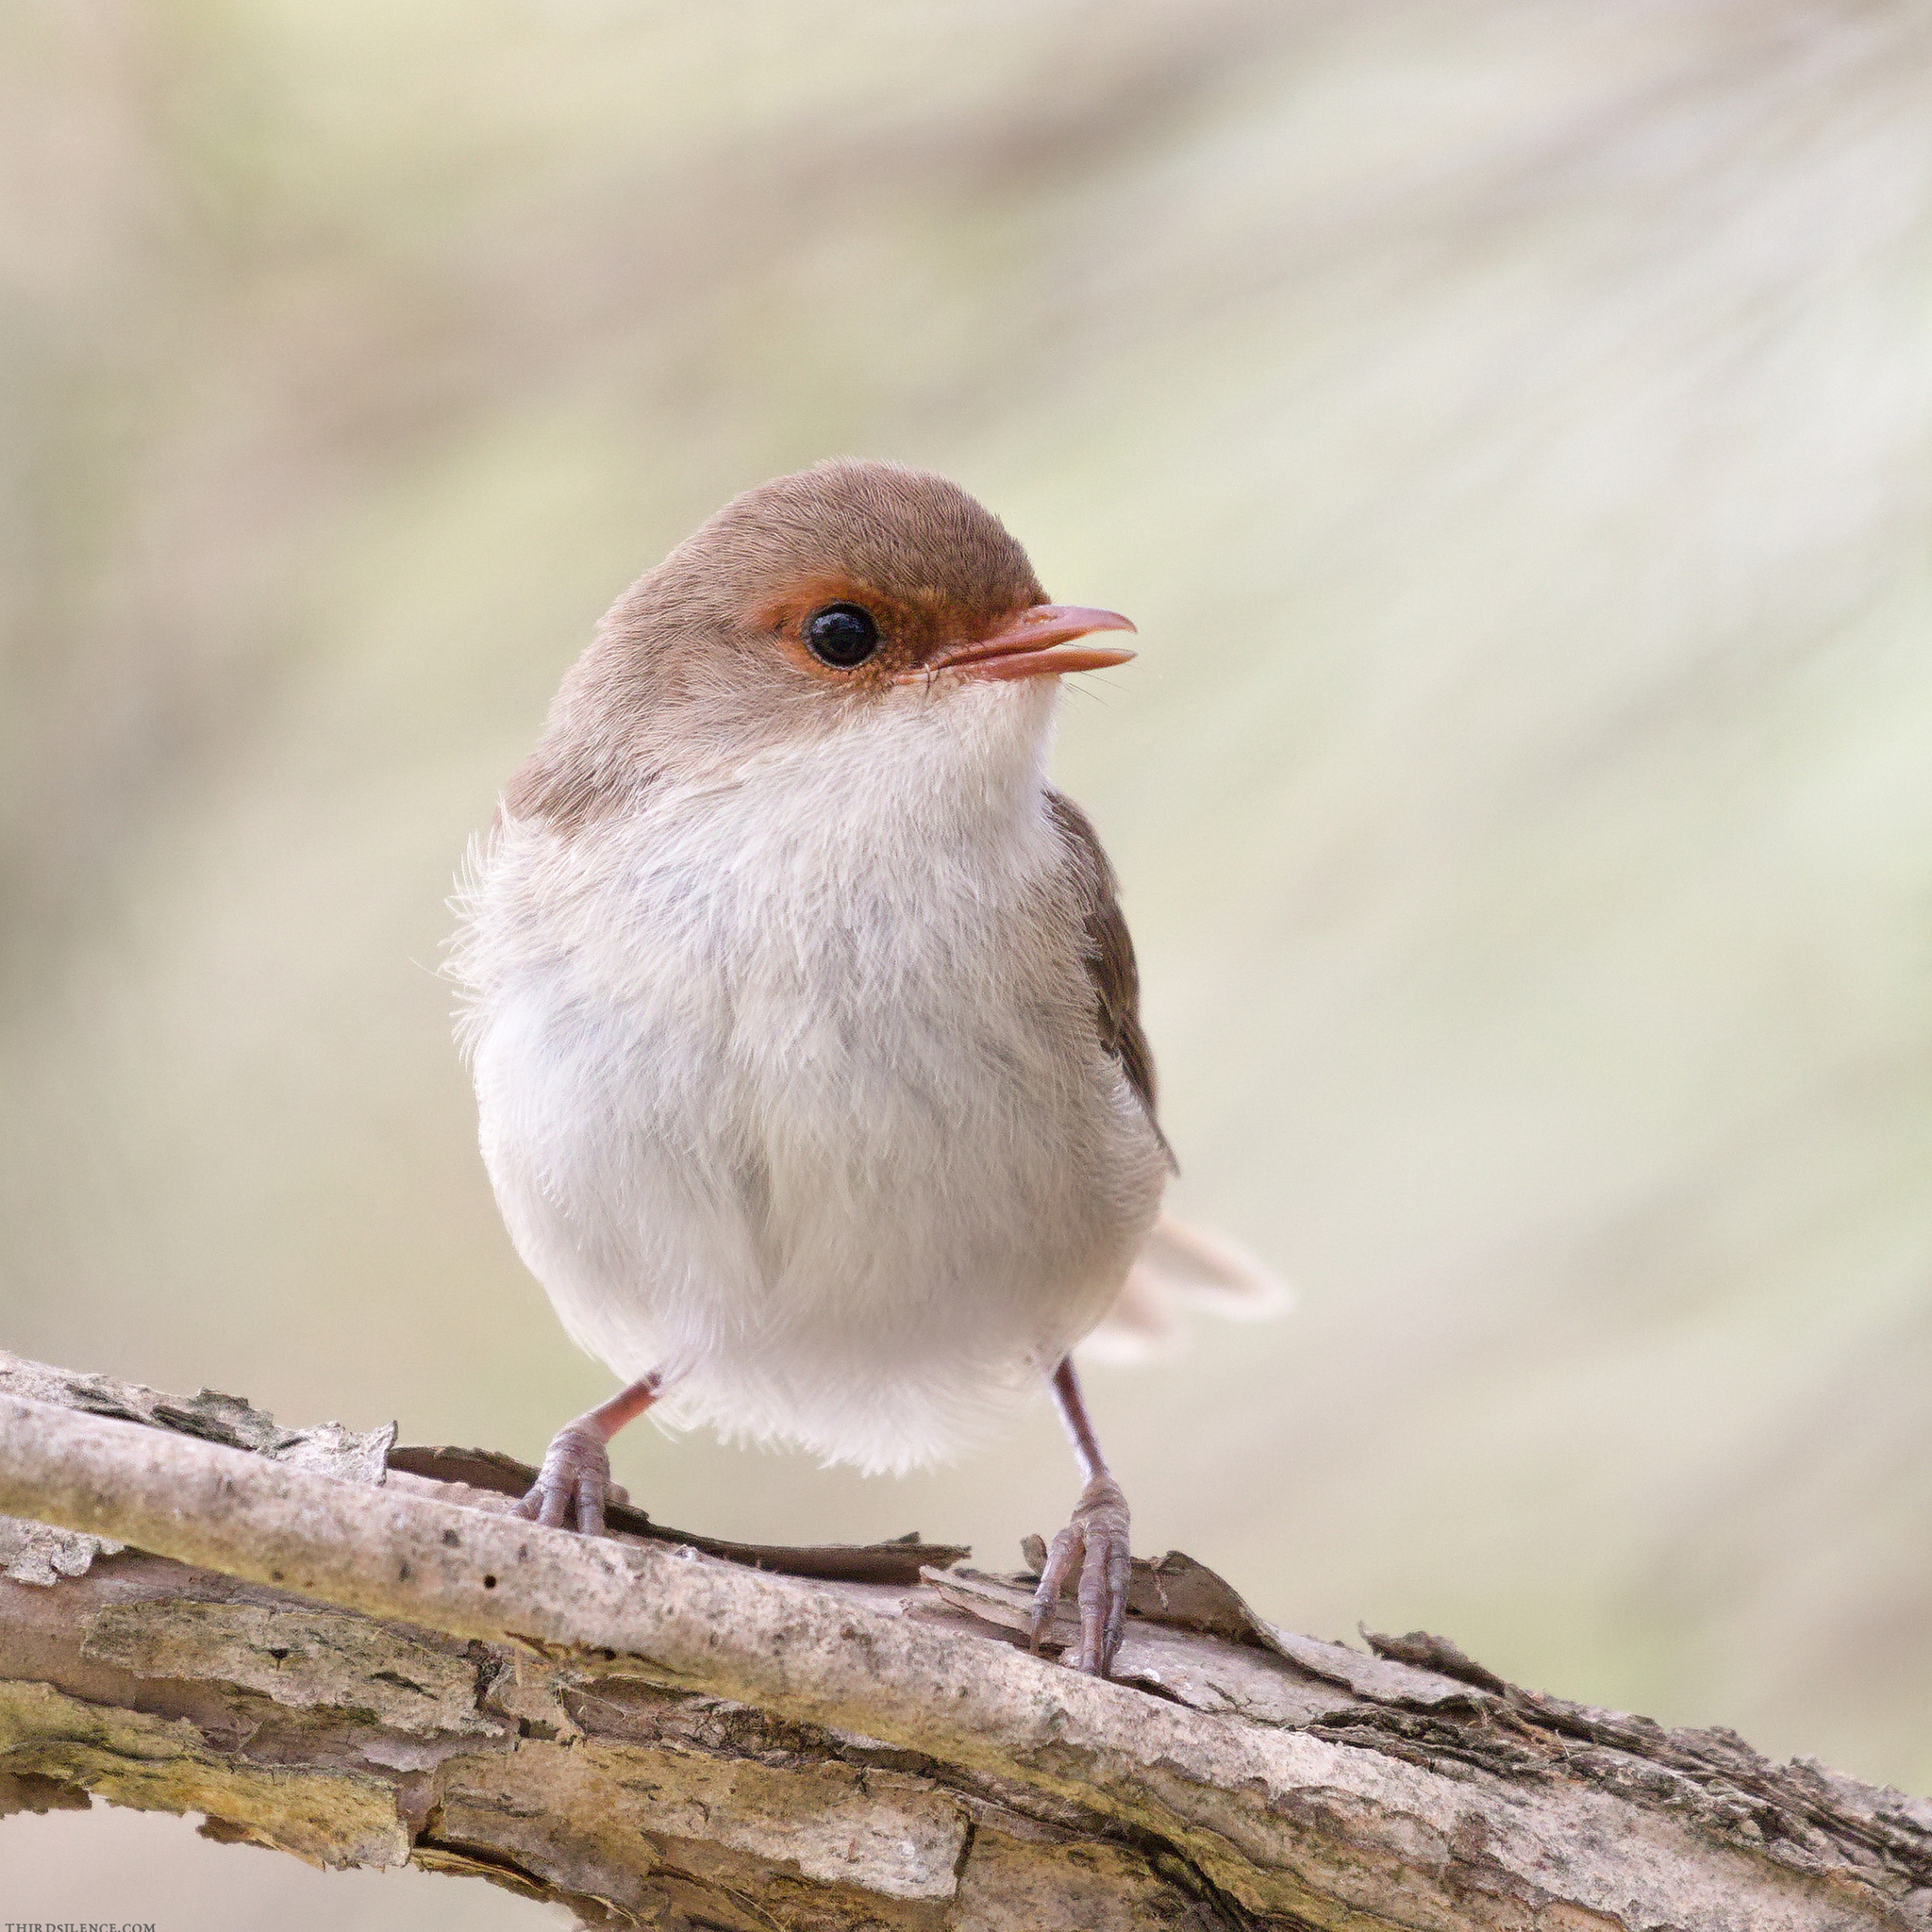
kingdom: Animalia
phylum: Chordata
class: Aves
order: Passeriformes
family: Maluridae
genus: Malurus
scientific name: Malurus cyaneus
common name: Superb fairywren
